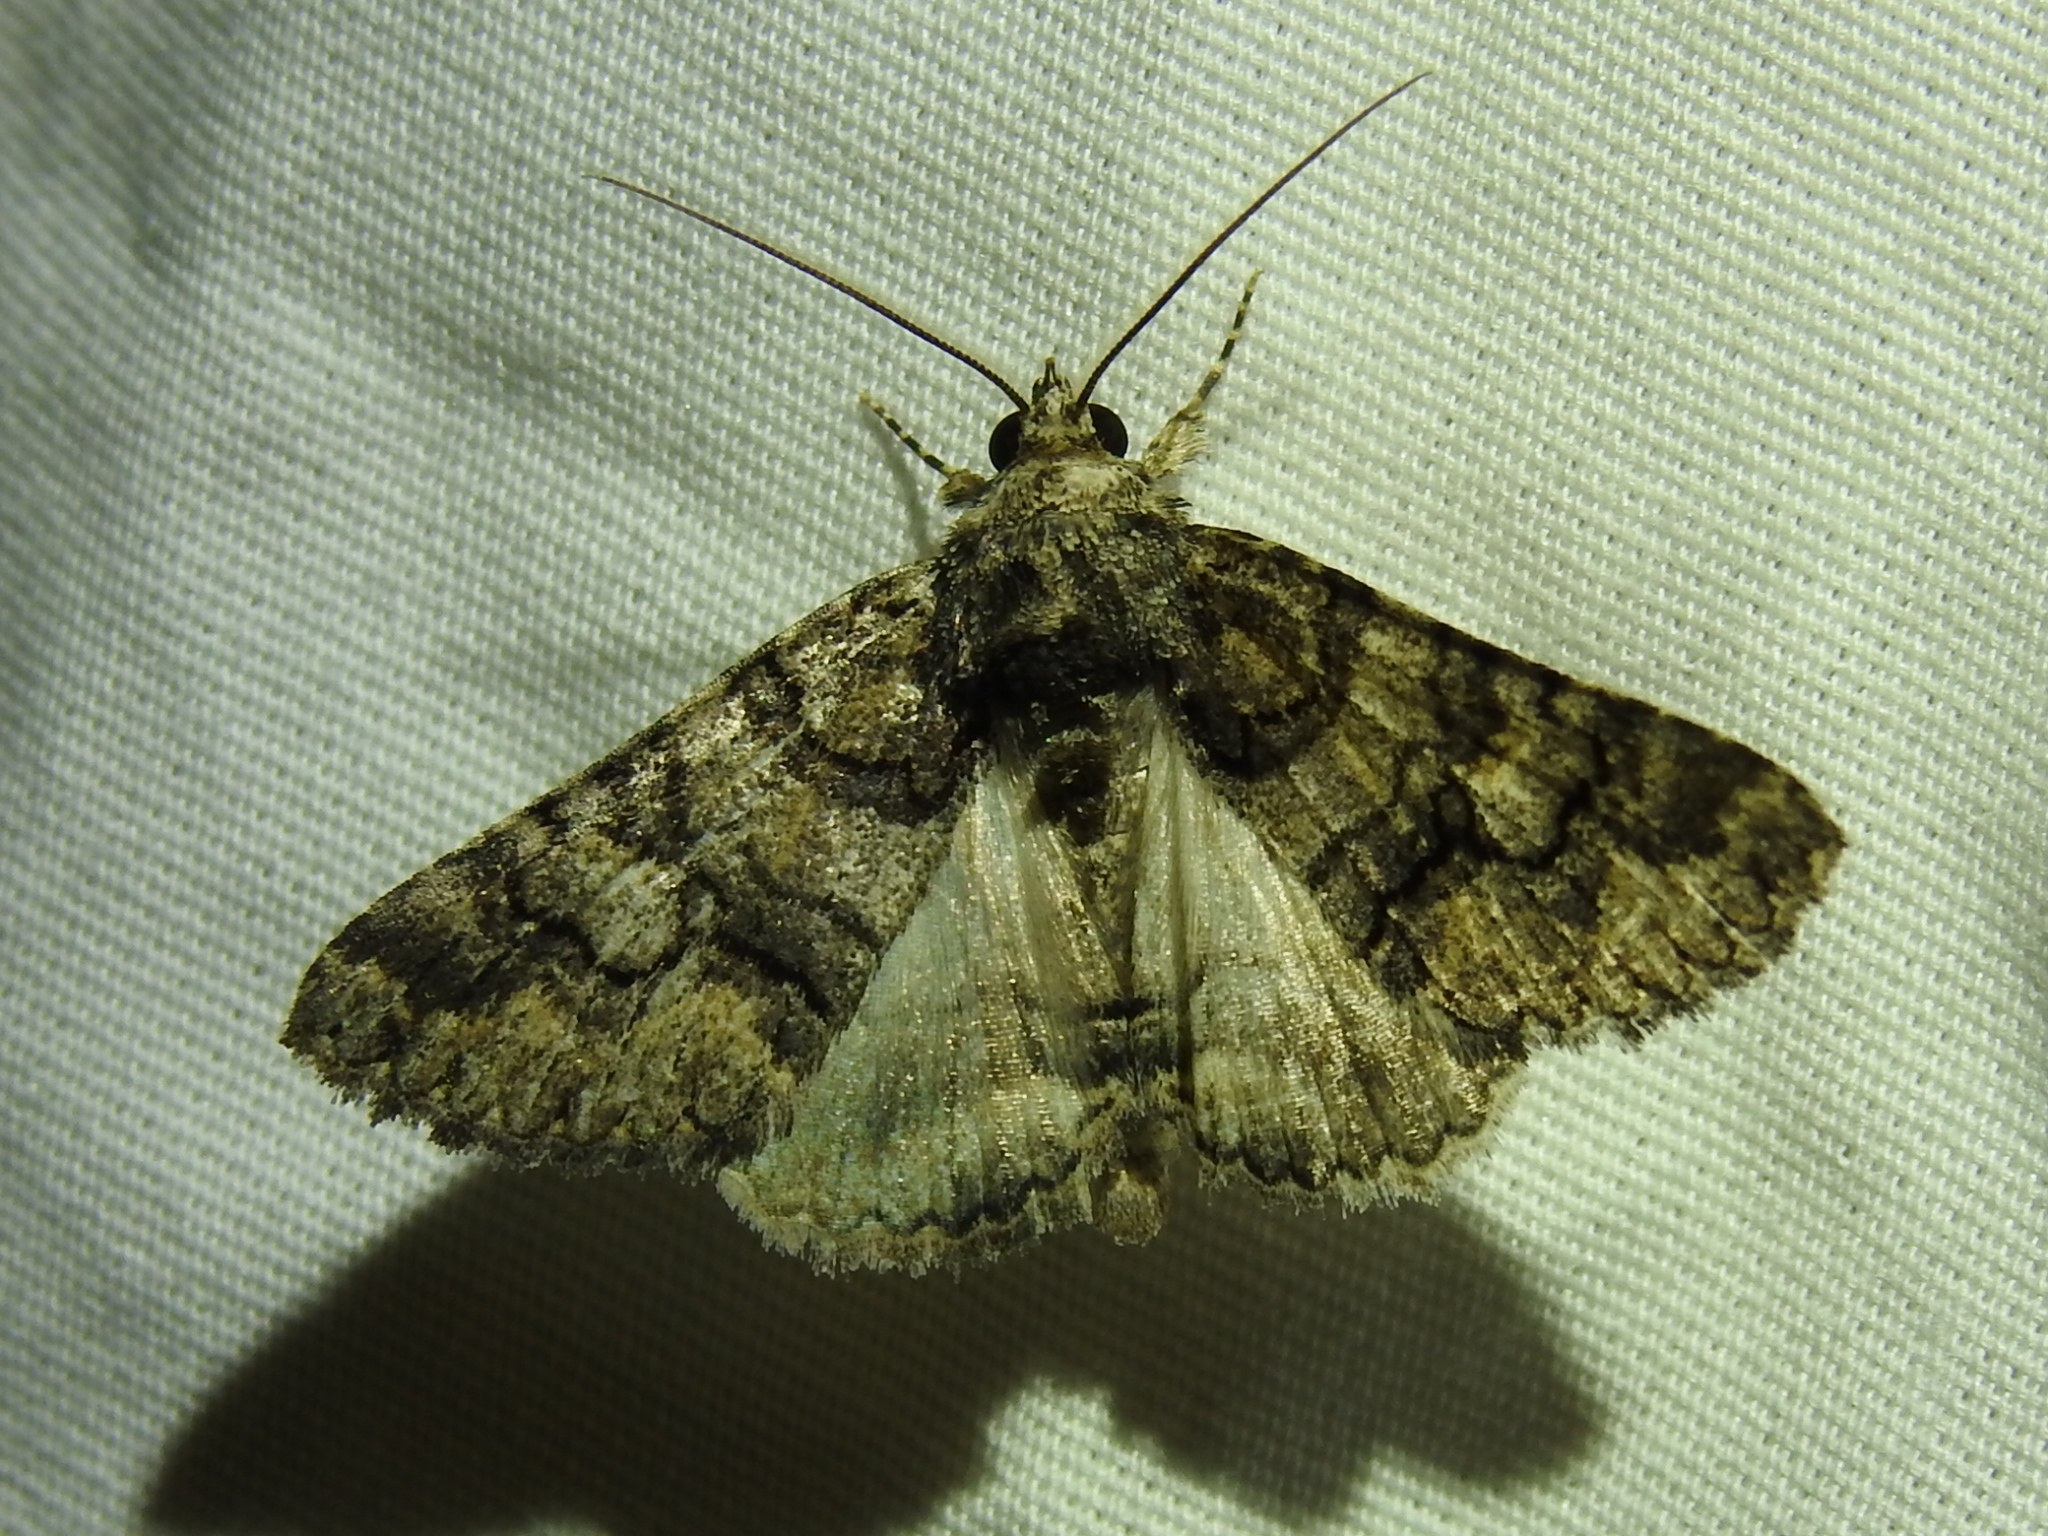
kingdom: Animalia
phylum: Arthropoda
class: Insecta
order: Lepidoptera
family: Erebidae
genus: Elousa
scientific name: Elousa mima
